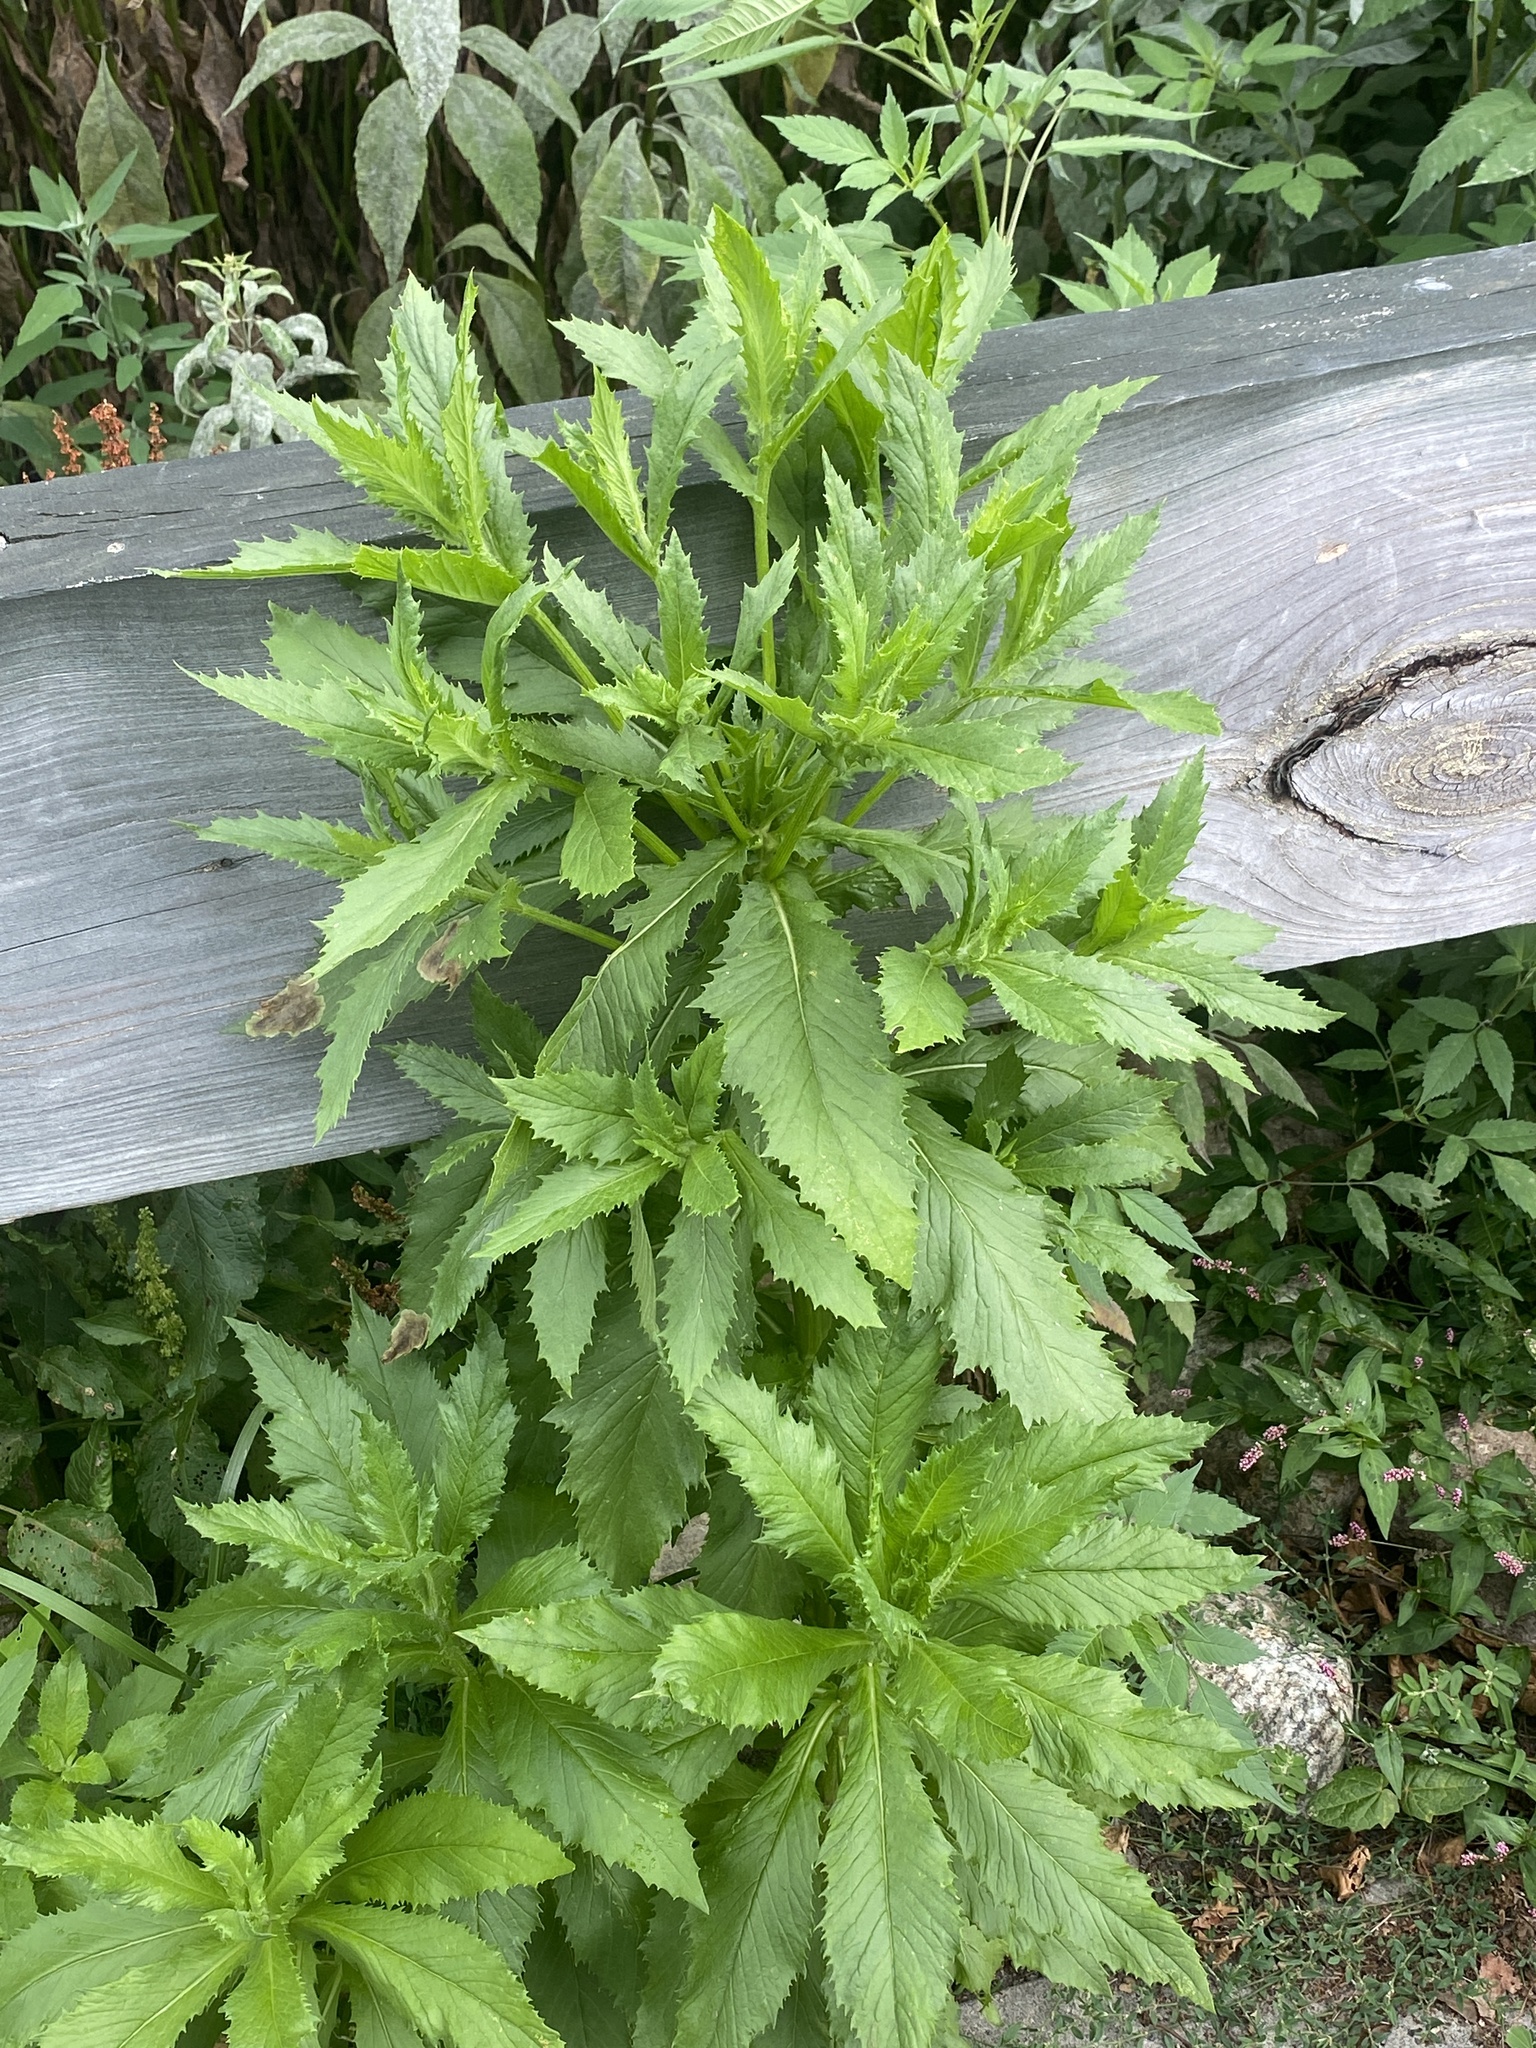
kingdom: Plantae
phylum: Tracheophyta
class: Magnoliopsida
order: Asterales
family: Asteraceae
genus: Erechtites
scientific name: Erechtites hieraciifolius
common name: American burnweed
